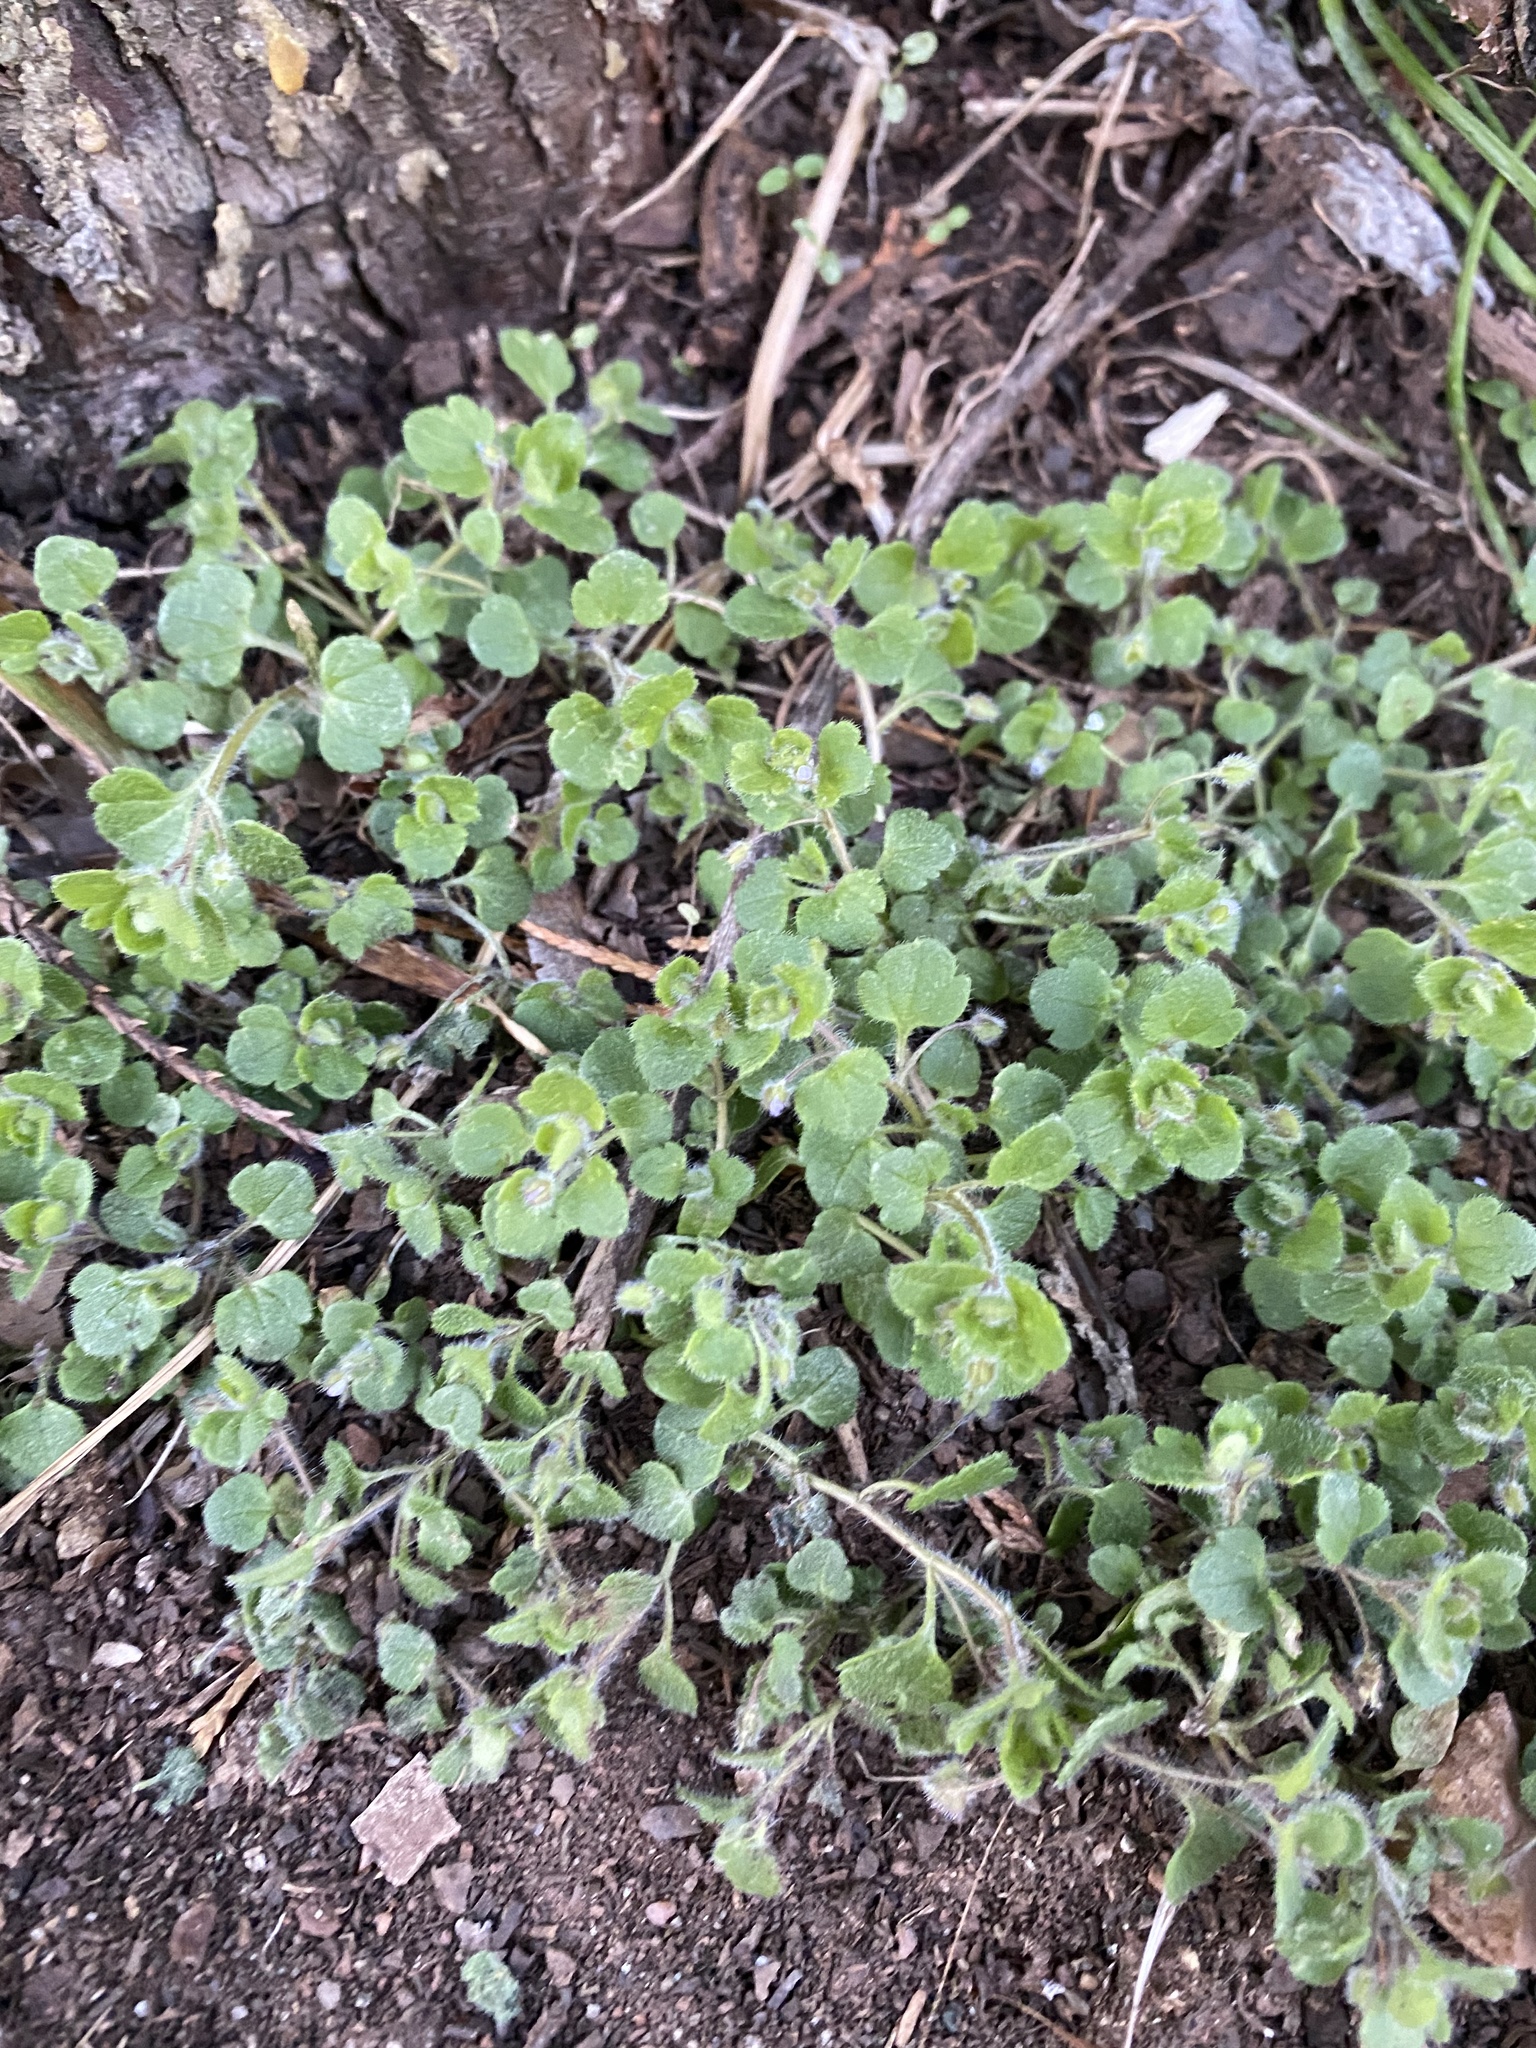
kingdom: Plantae
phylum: Tracheophyta
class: Magnoliopsida
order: Lamiales
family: Plantaginaceae
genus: Veronica
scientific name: Veronica sublobata
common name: False ivy-leaved speedwell
